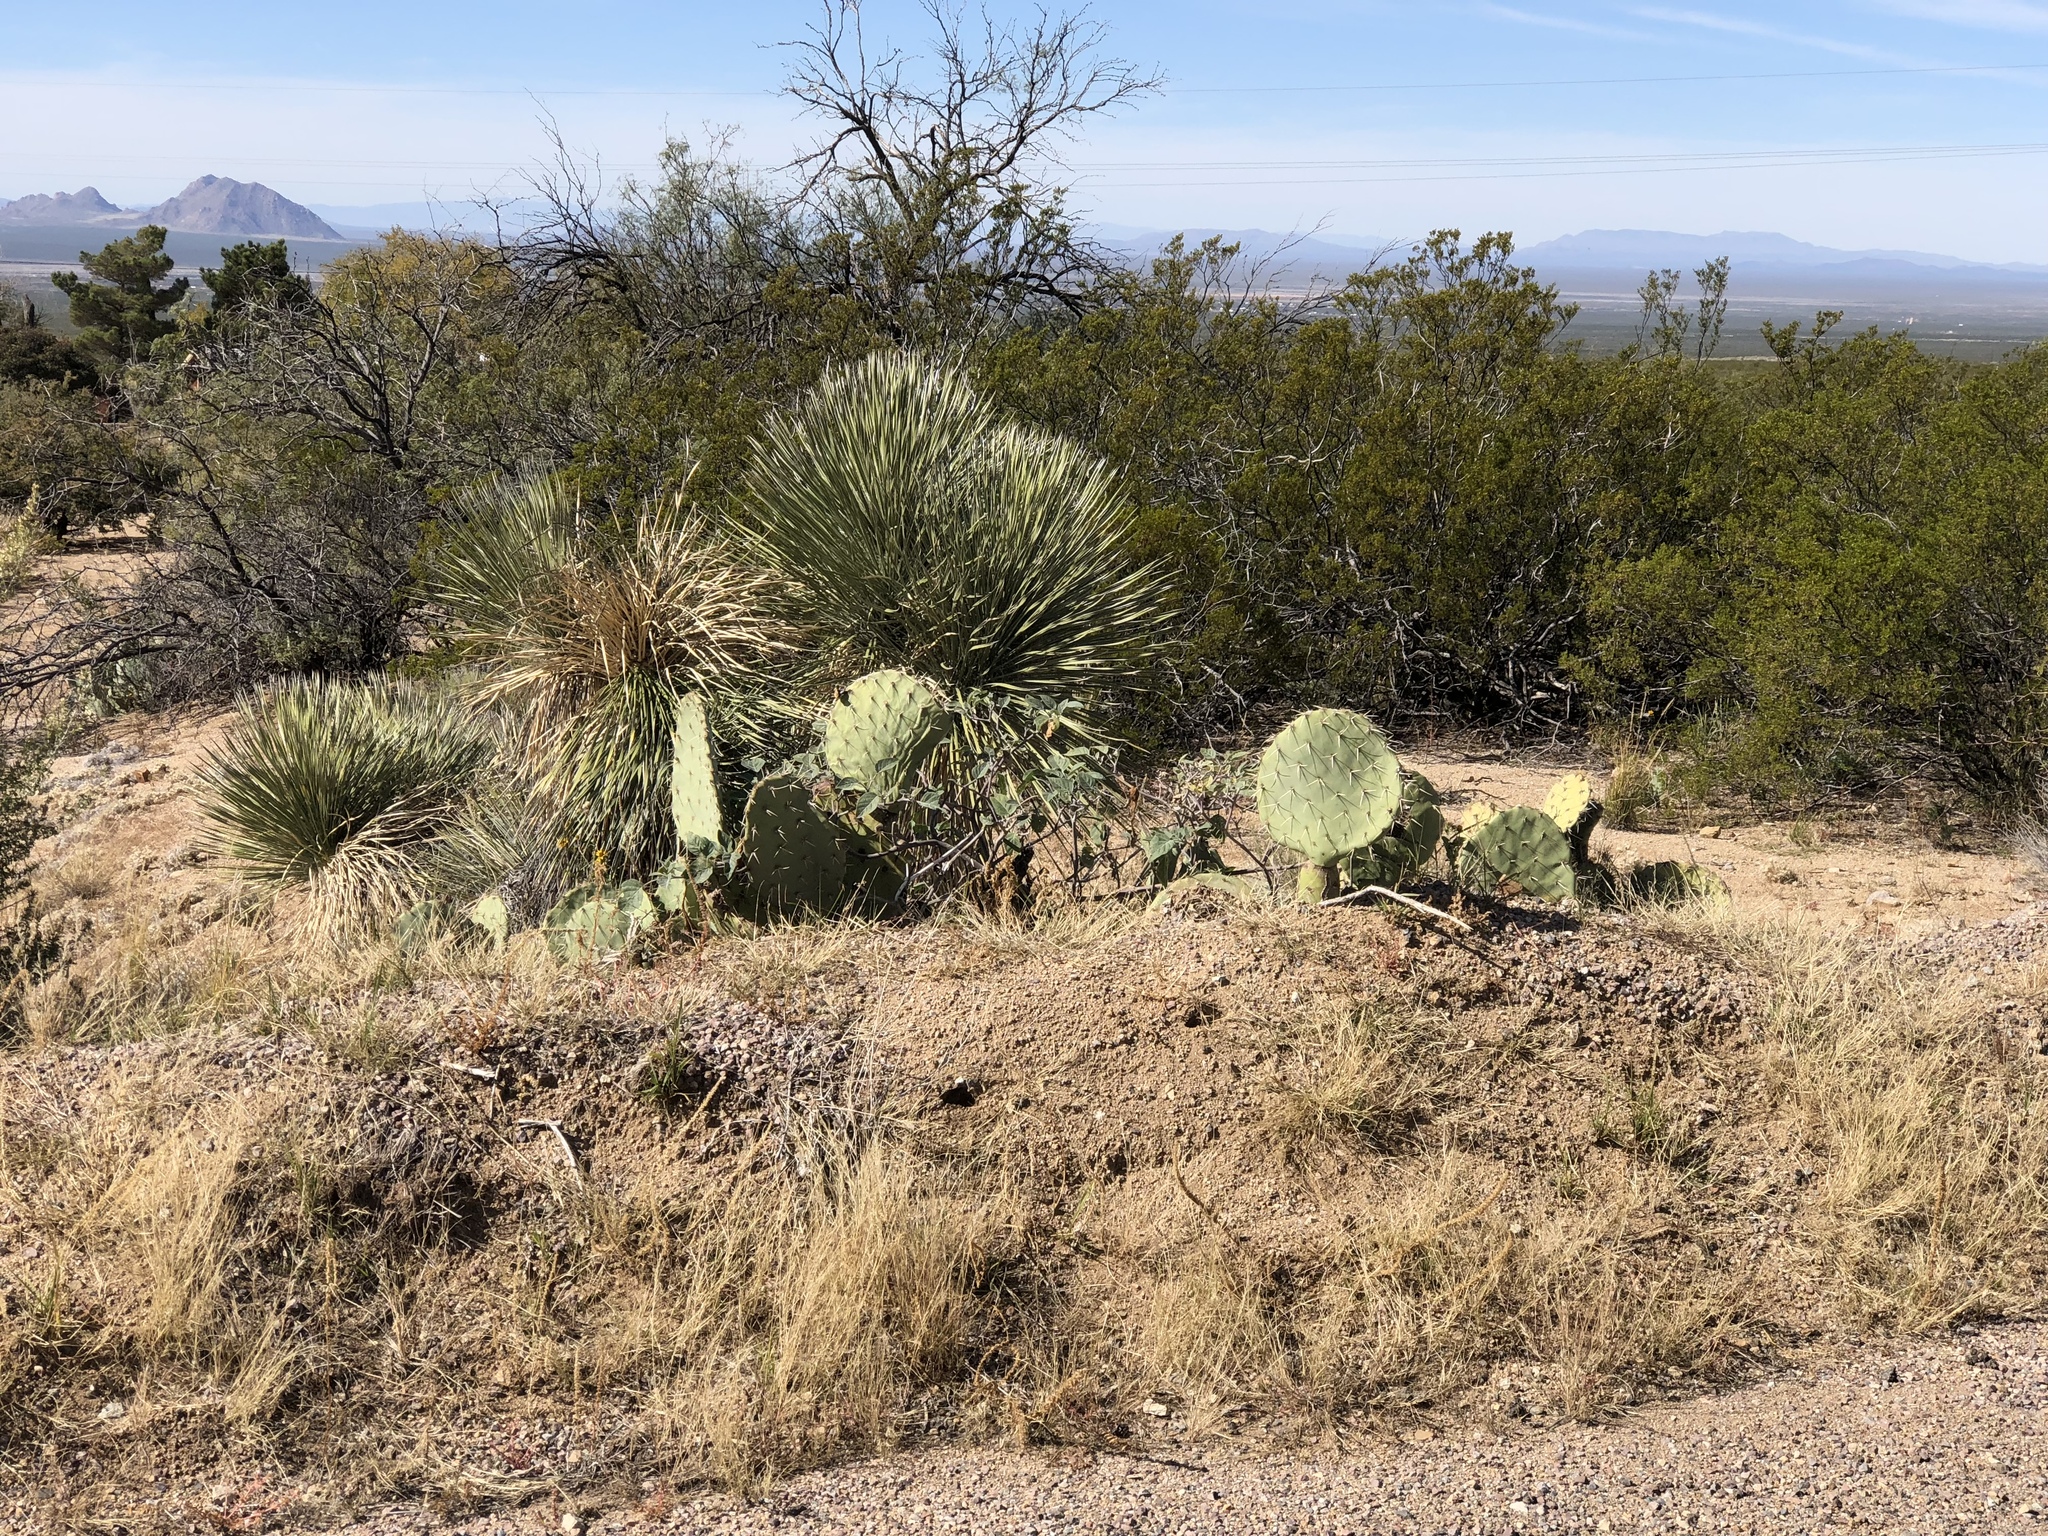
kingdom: Plantae
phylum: Tracheophyta
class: Liliopsida
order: Asparagales
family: Asparagaceae
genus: Yucca
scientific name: Yucca elata
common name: Palmella
